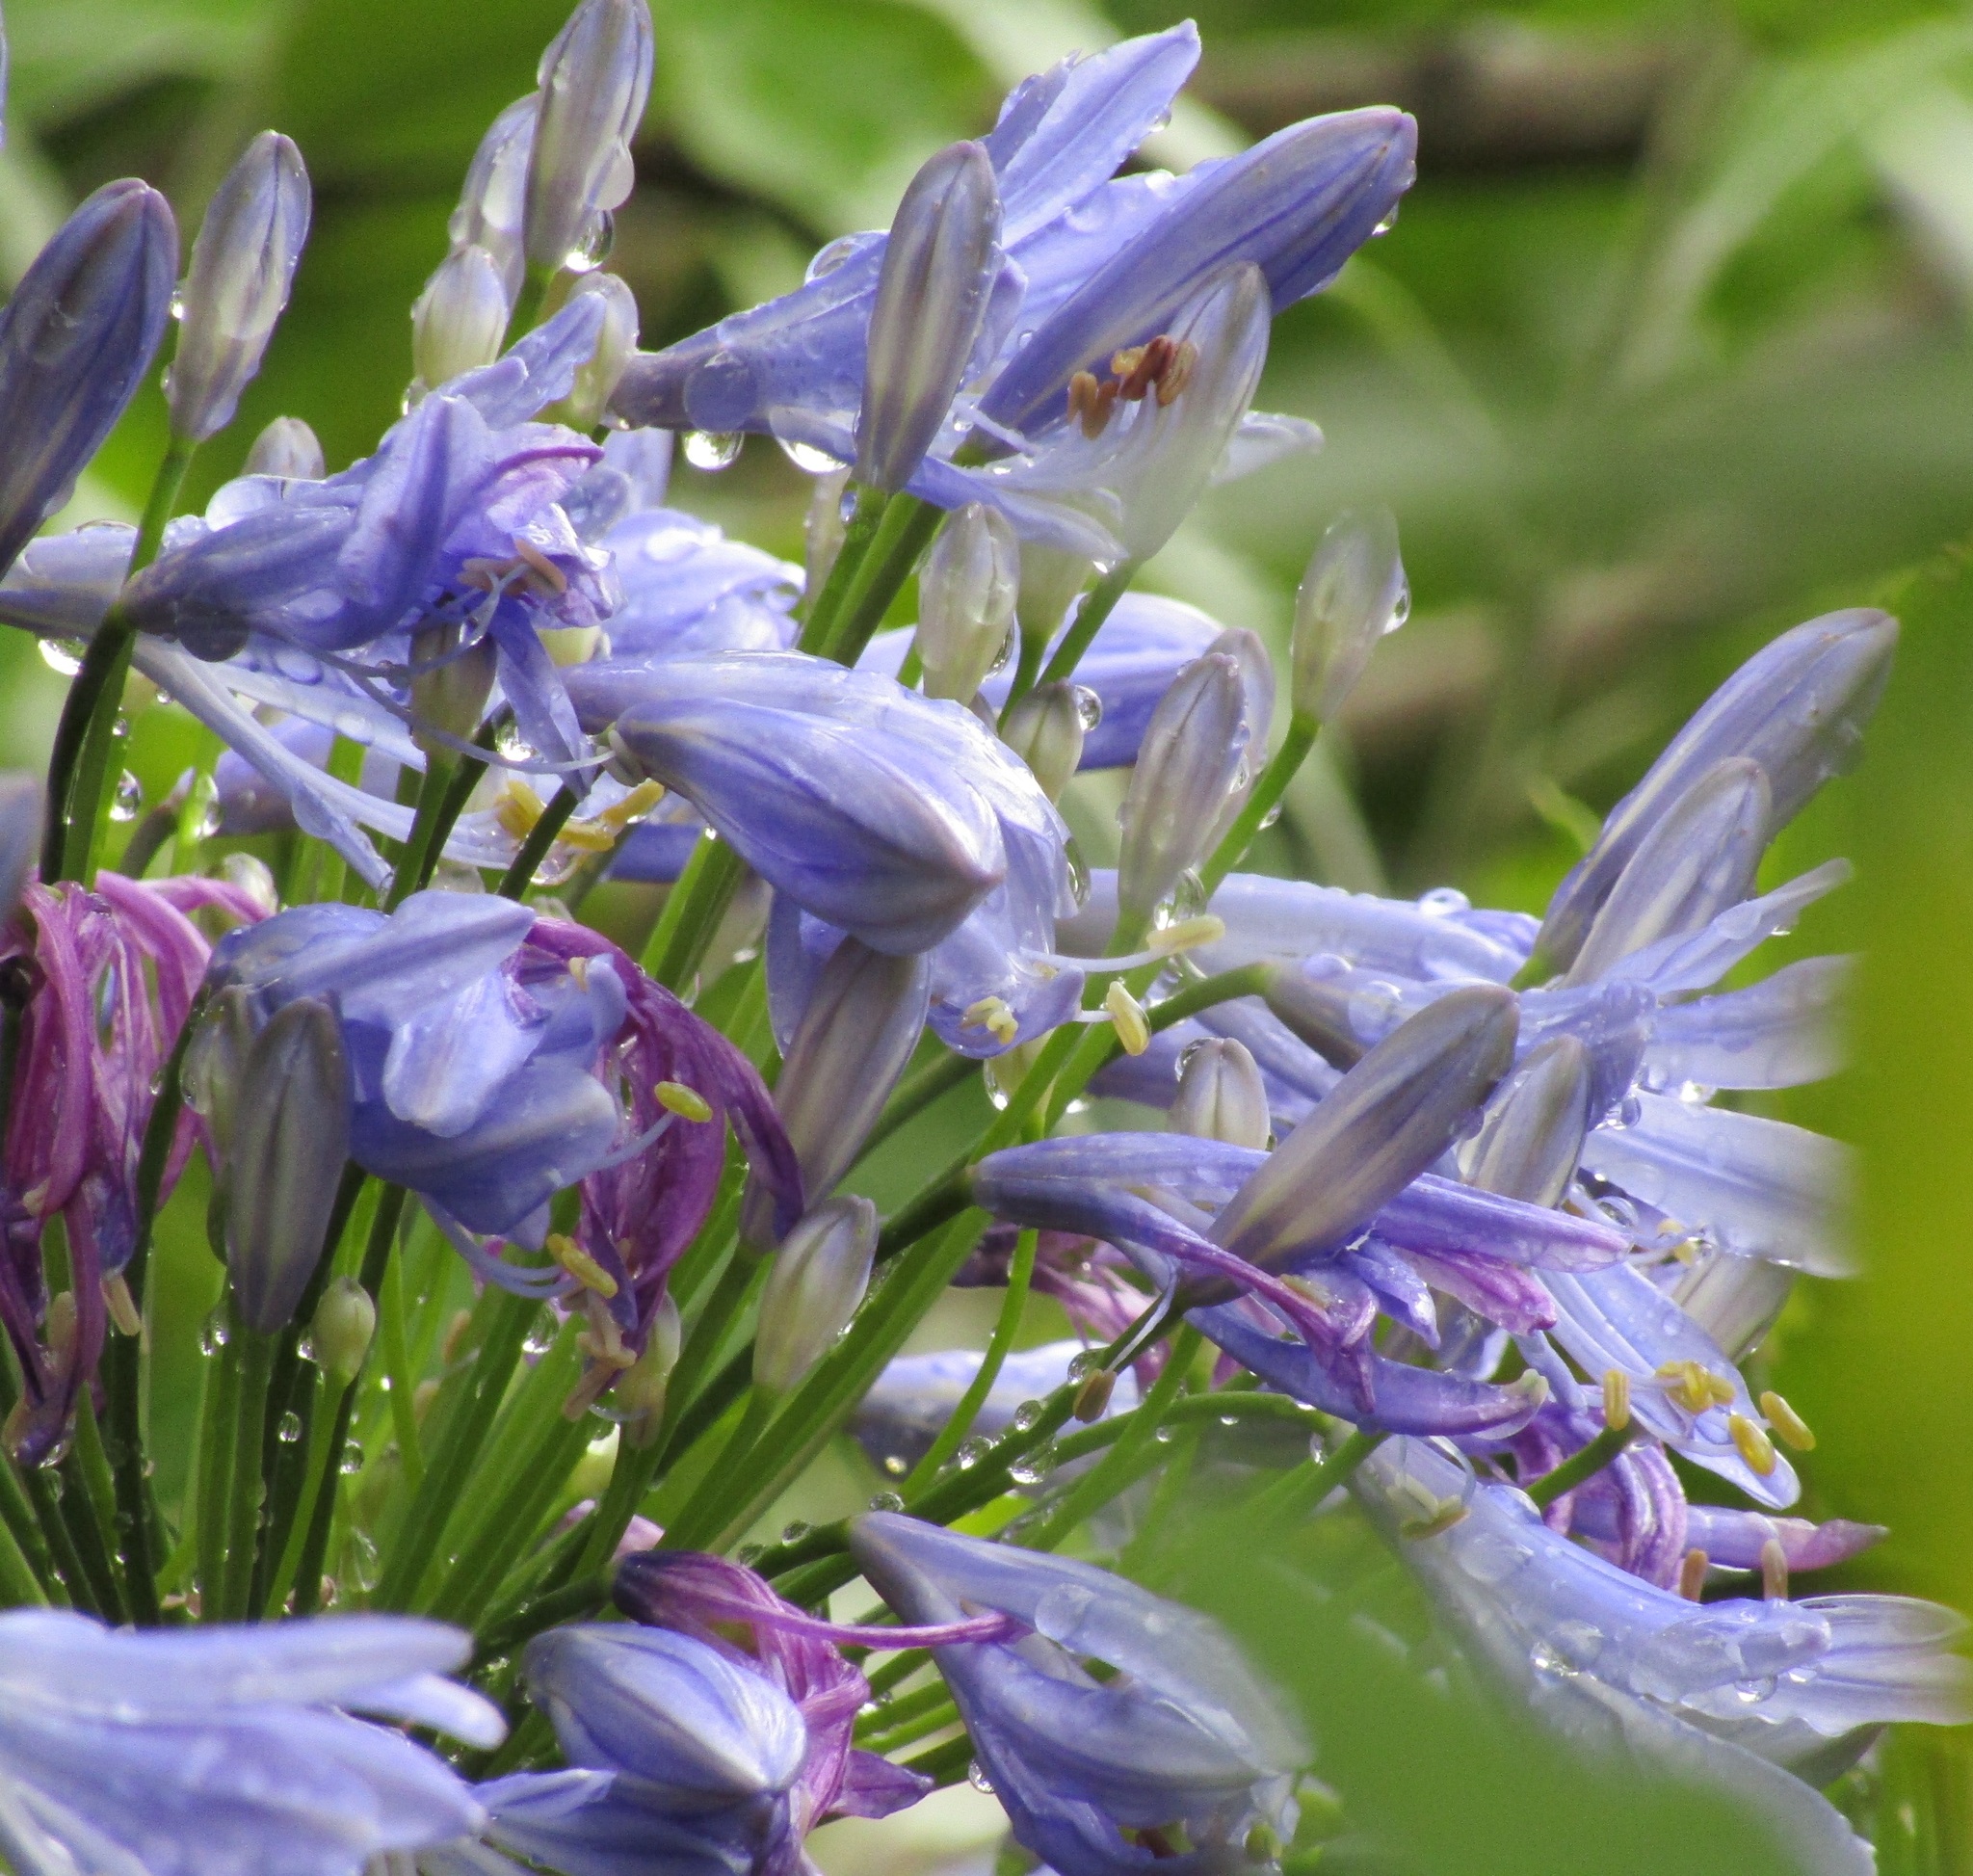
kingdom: Plantae
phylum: Tracheophyta
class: Liliopsida
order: Asparagales
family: Amaryllidaceae
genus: Agapanthus
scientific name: Agapanthus praecox
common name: African-lily
